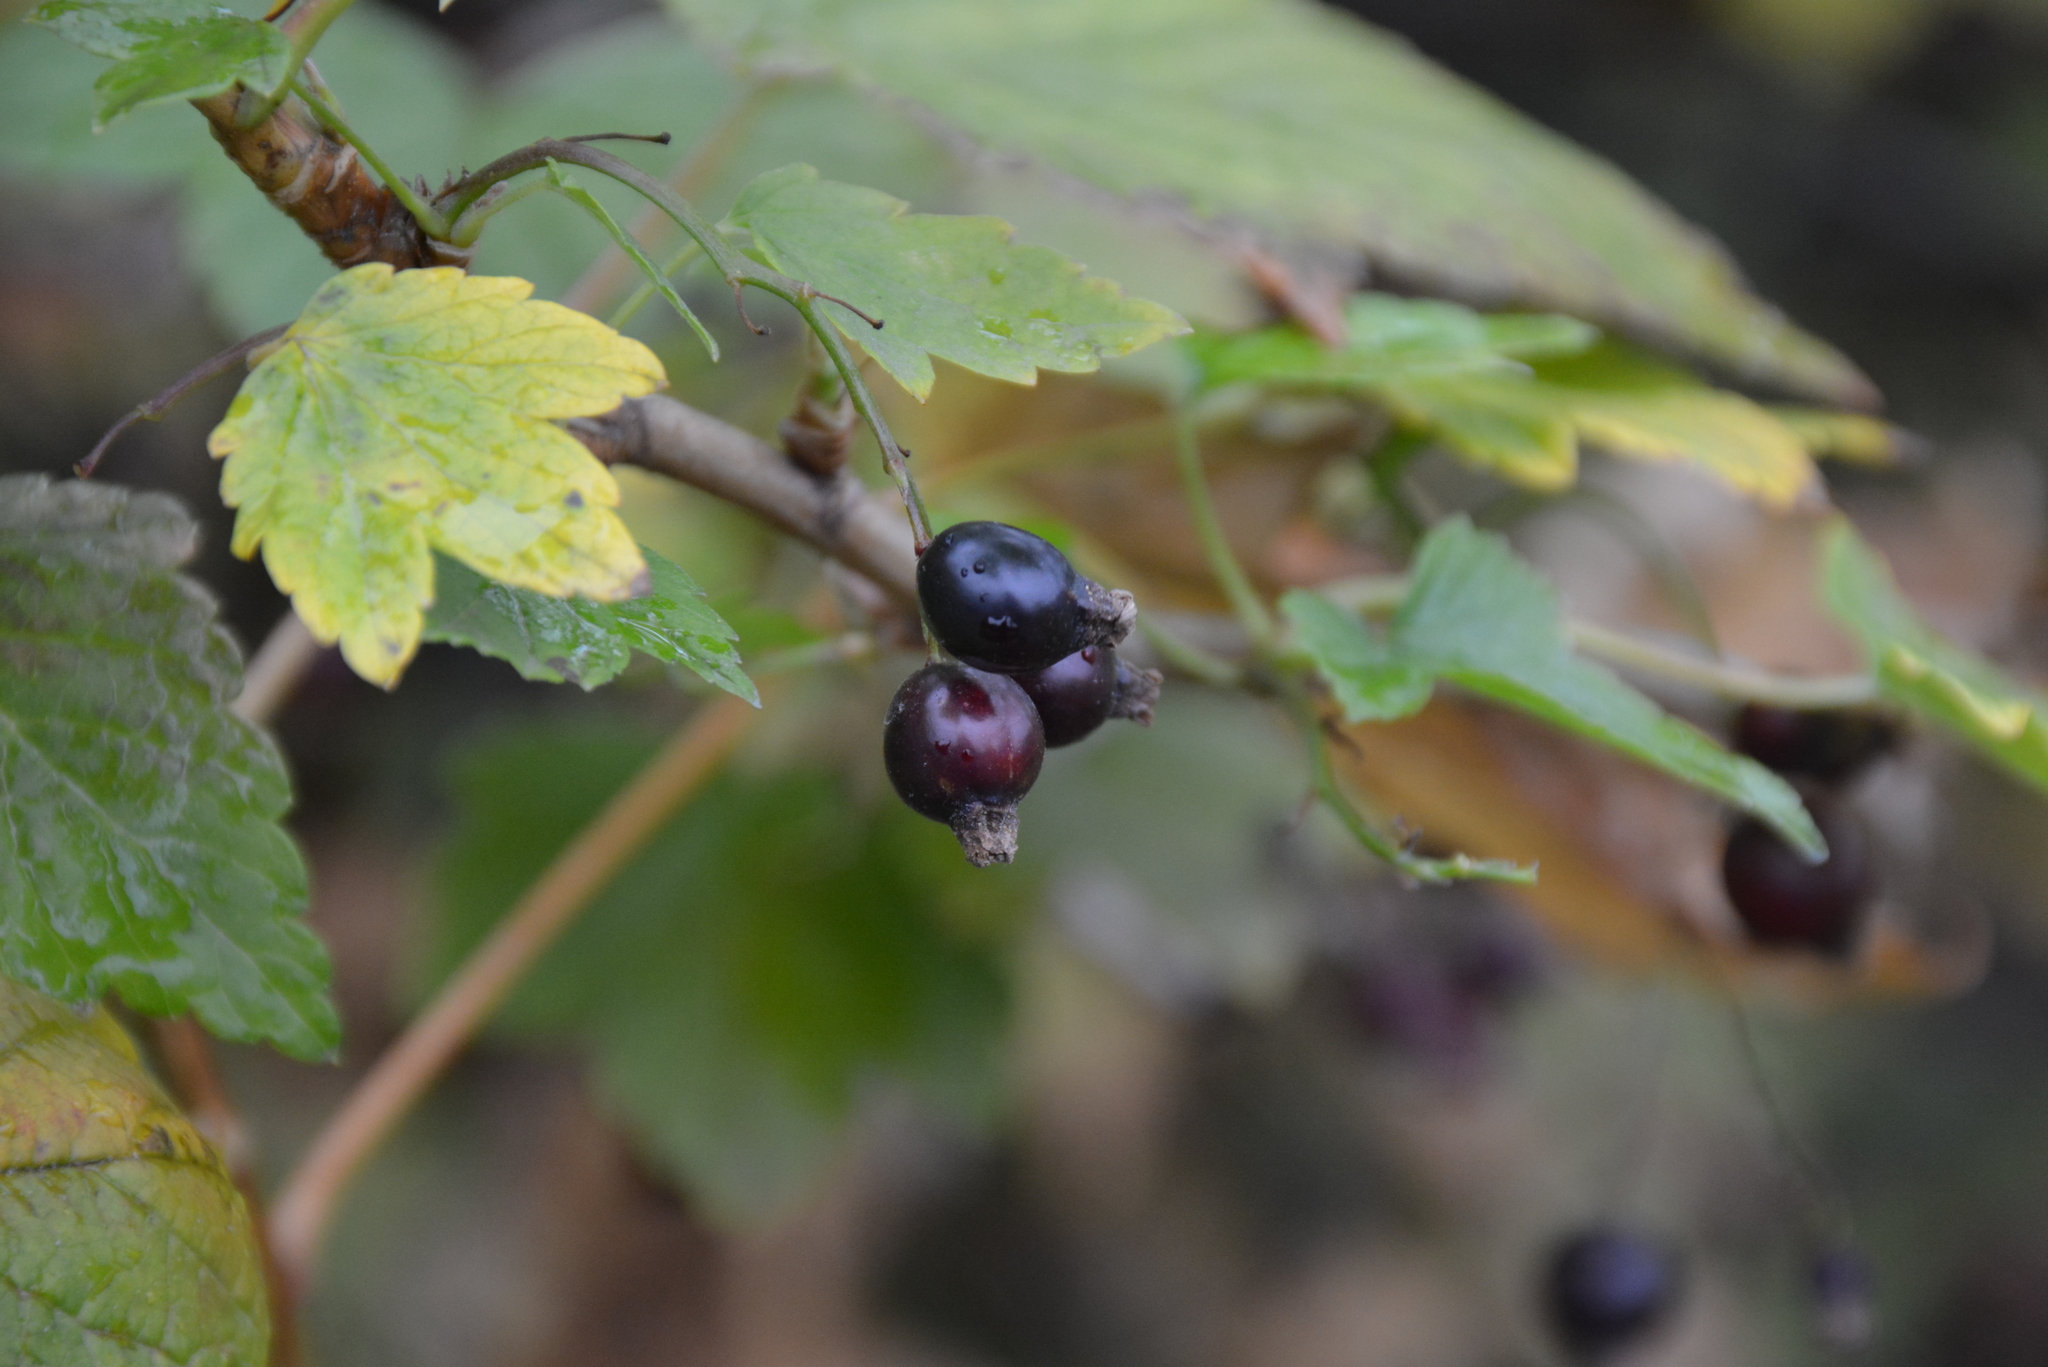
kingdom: Plantae
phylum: Tracheophyta
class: Magnoliopsida
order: Saxifragales
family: Grossulariaceae
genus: Ribes
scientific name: Ribes dikuscha
